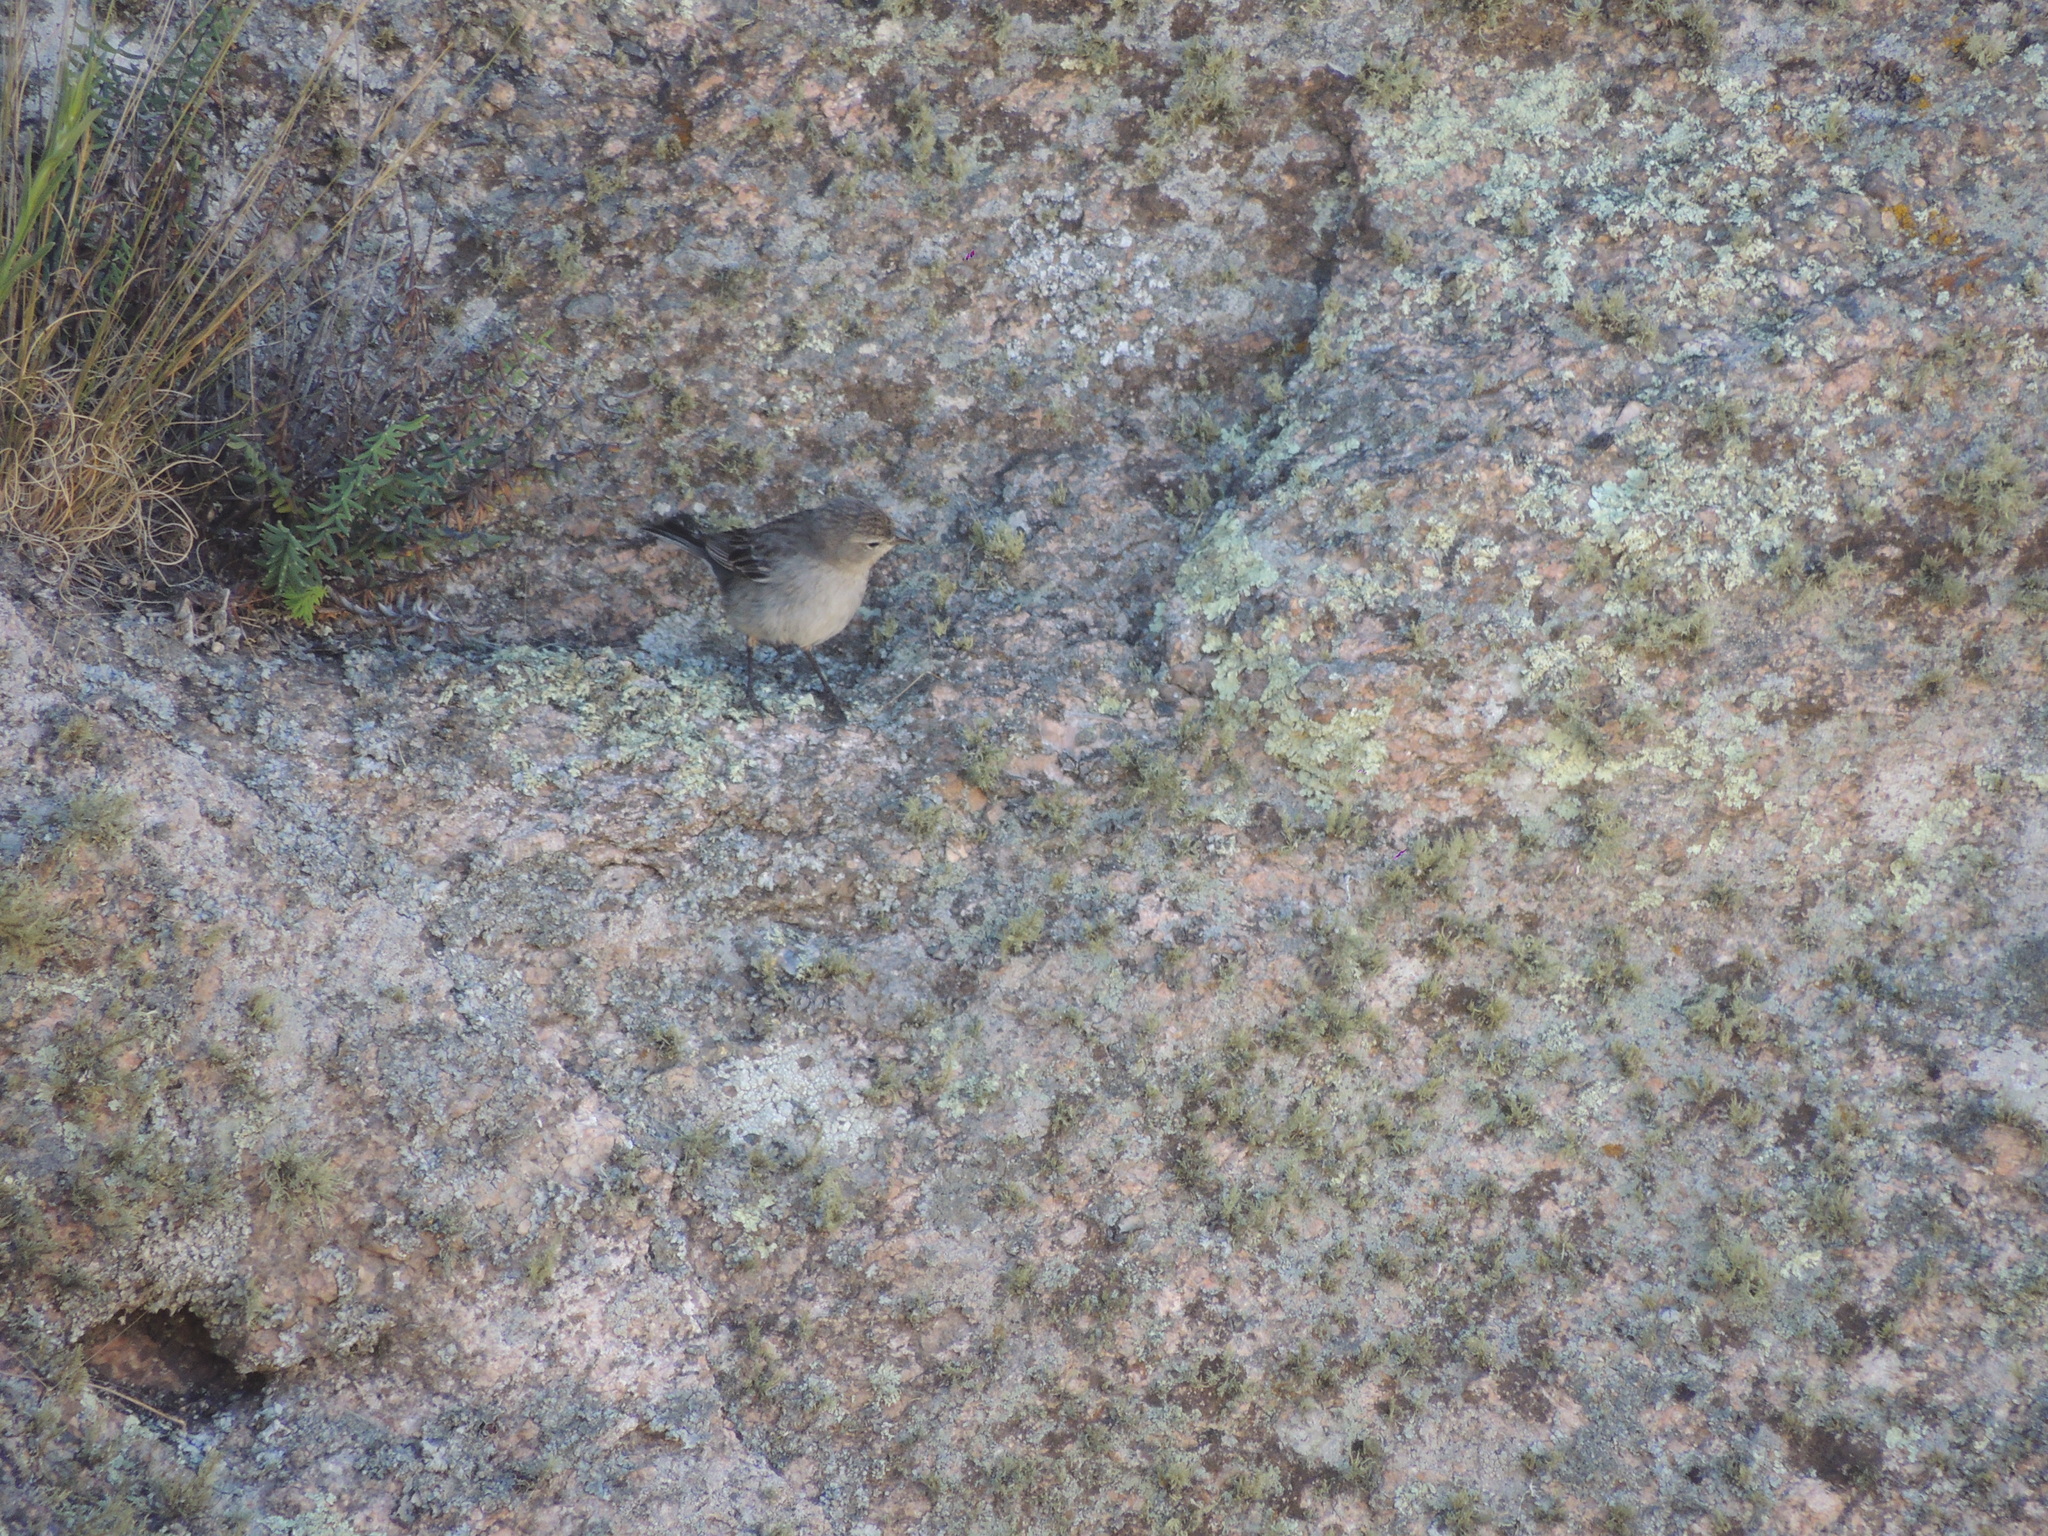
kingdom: Animalia
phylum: Chordata
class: Aves
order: Passeriformes
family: Thraupidae
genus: Geospizopsis
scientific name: Geospizopsis plebejus
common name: Ash-breasted sierra-finch
